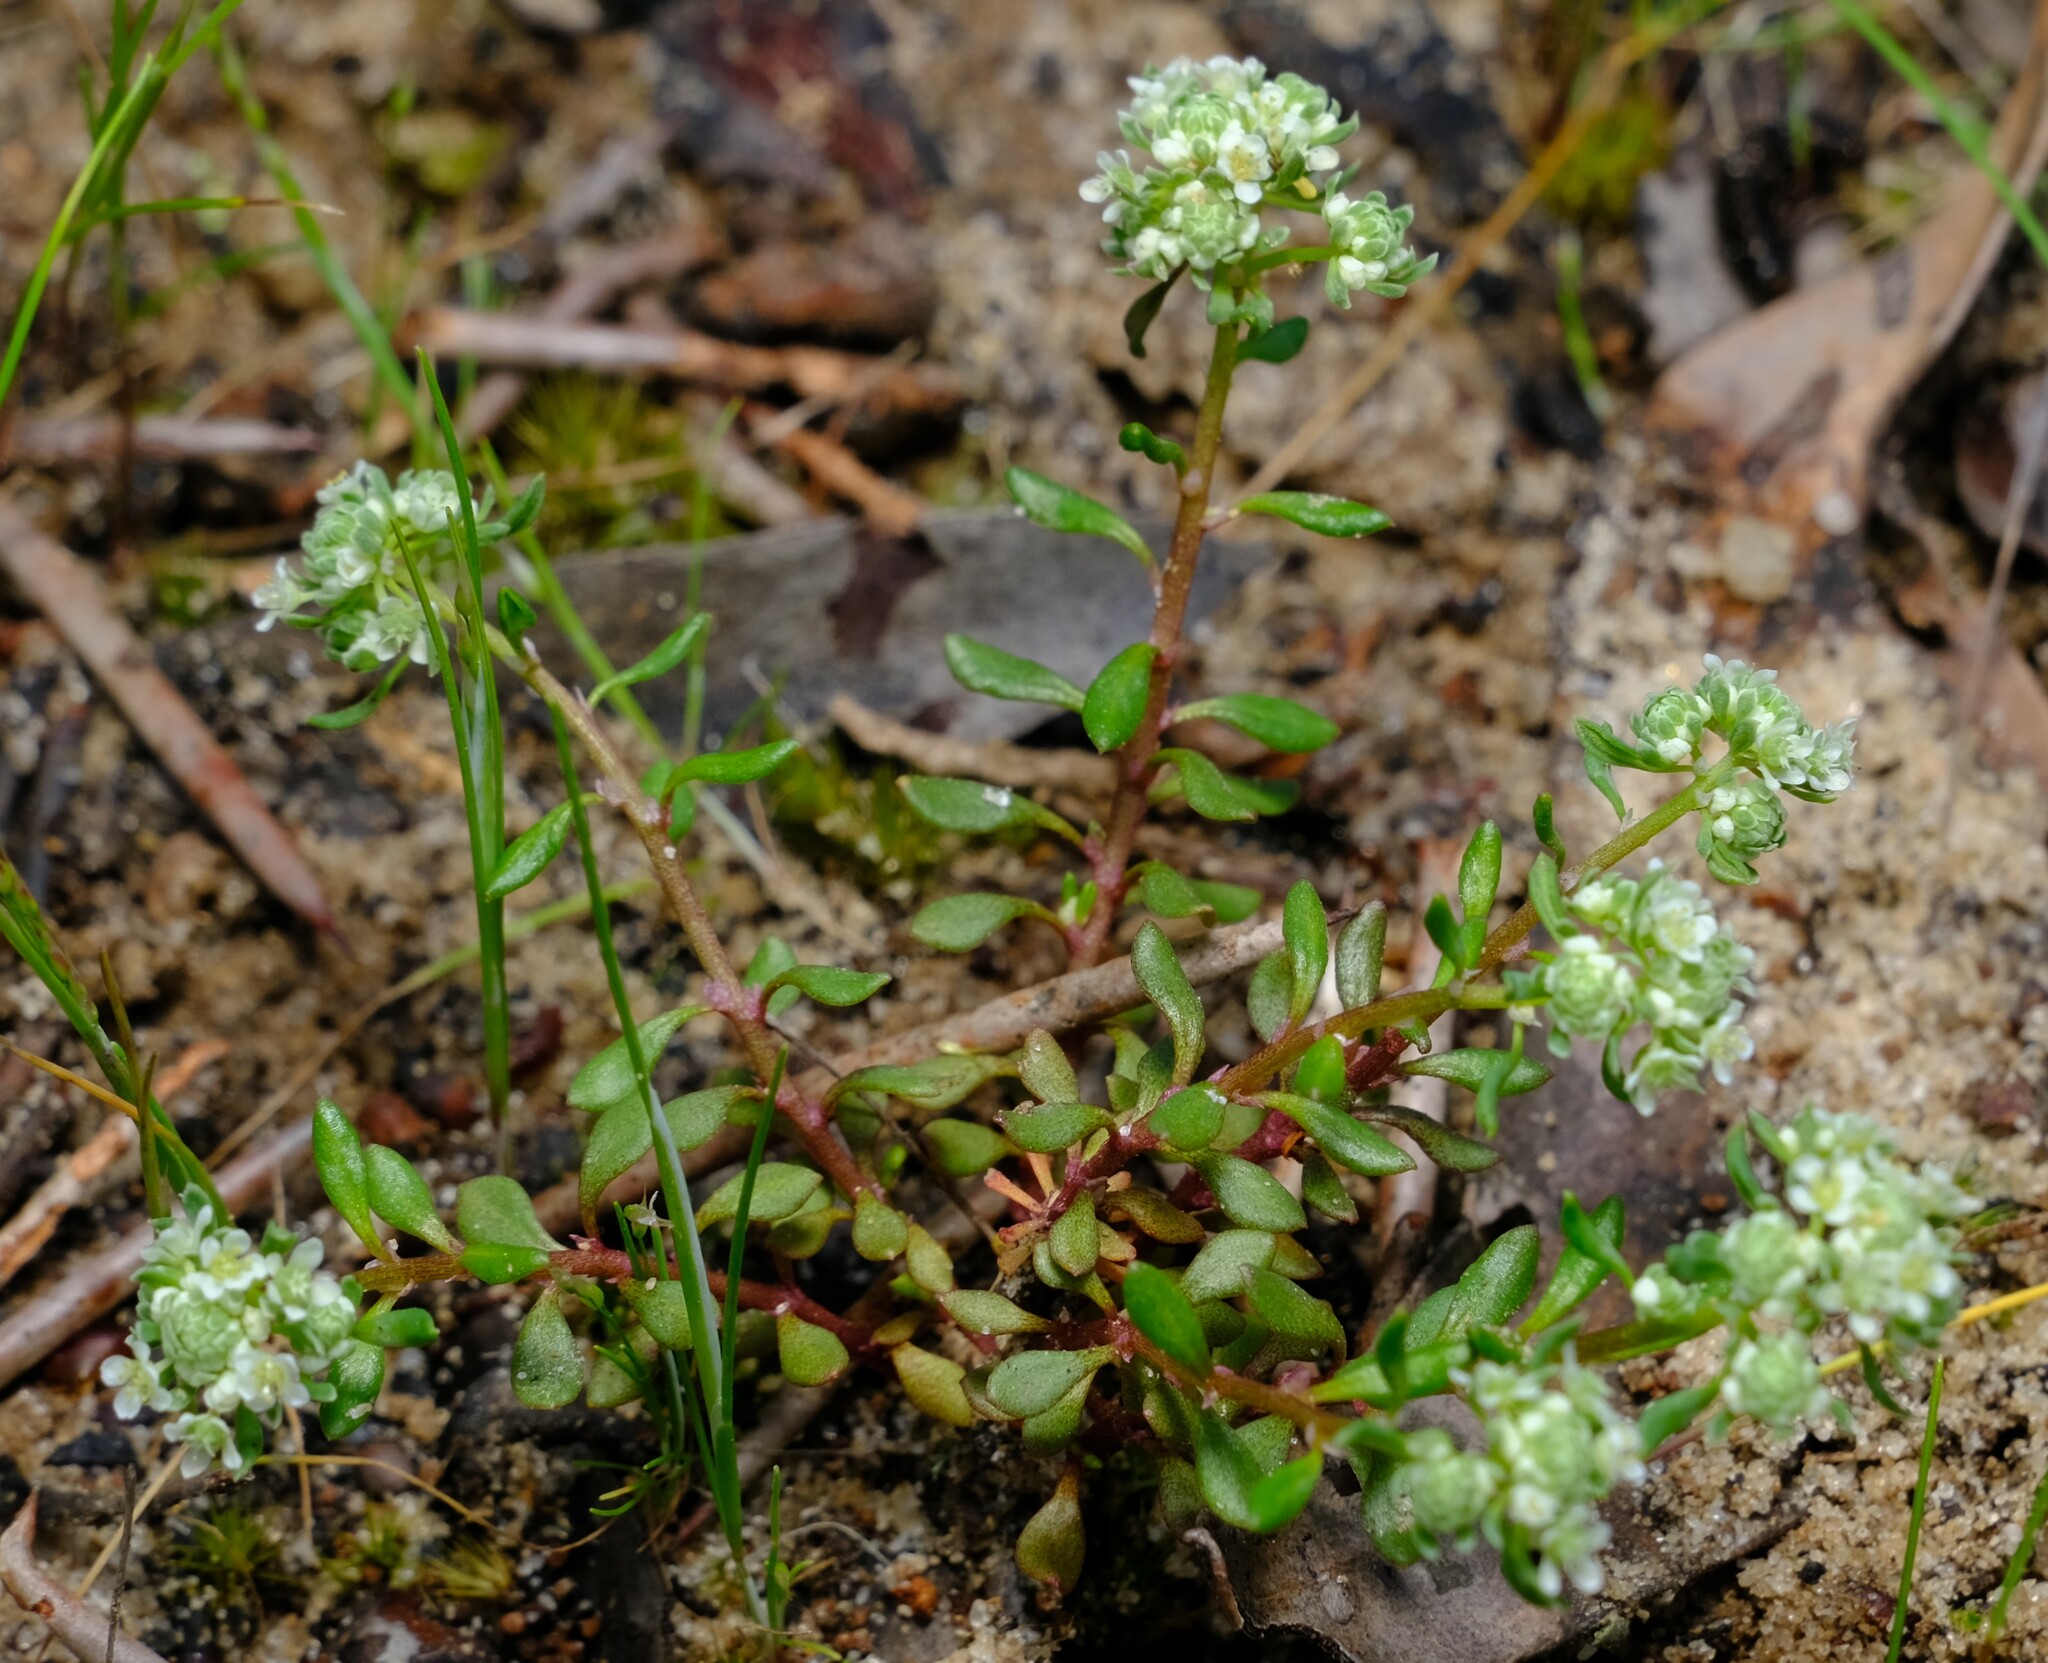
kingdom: Plantae
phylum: Tracheophyta
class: Magnoliopsida
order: Malpighiales
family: Phyllanthaceae
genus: Poranthera
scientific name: Poranthera microphylla
